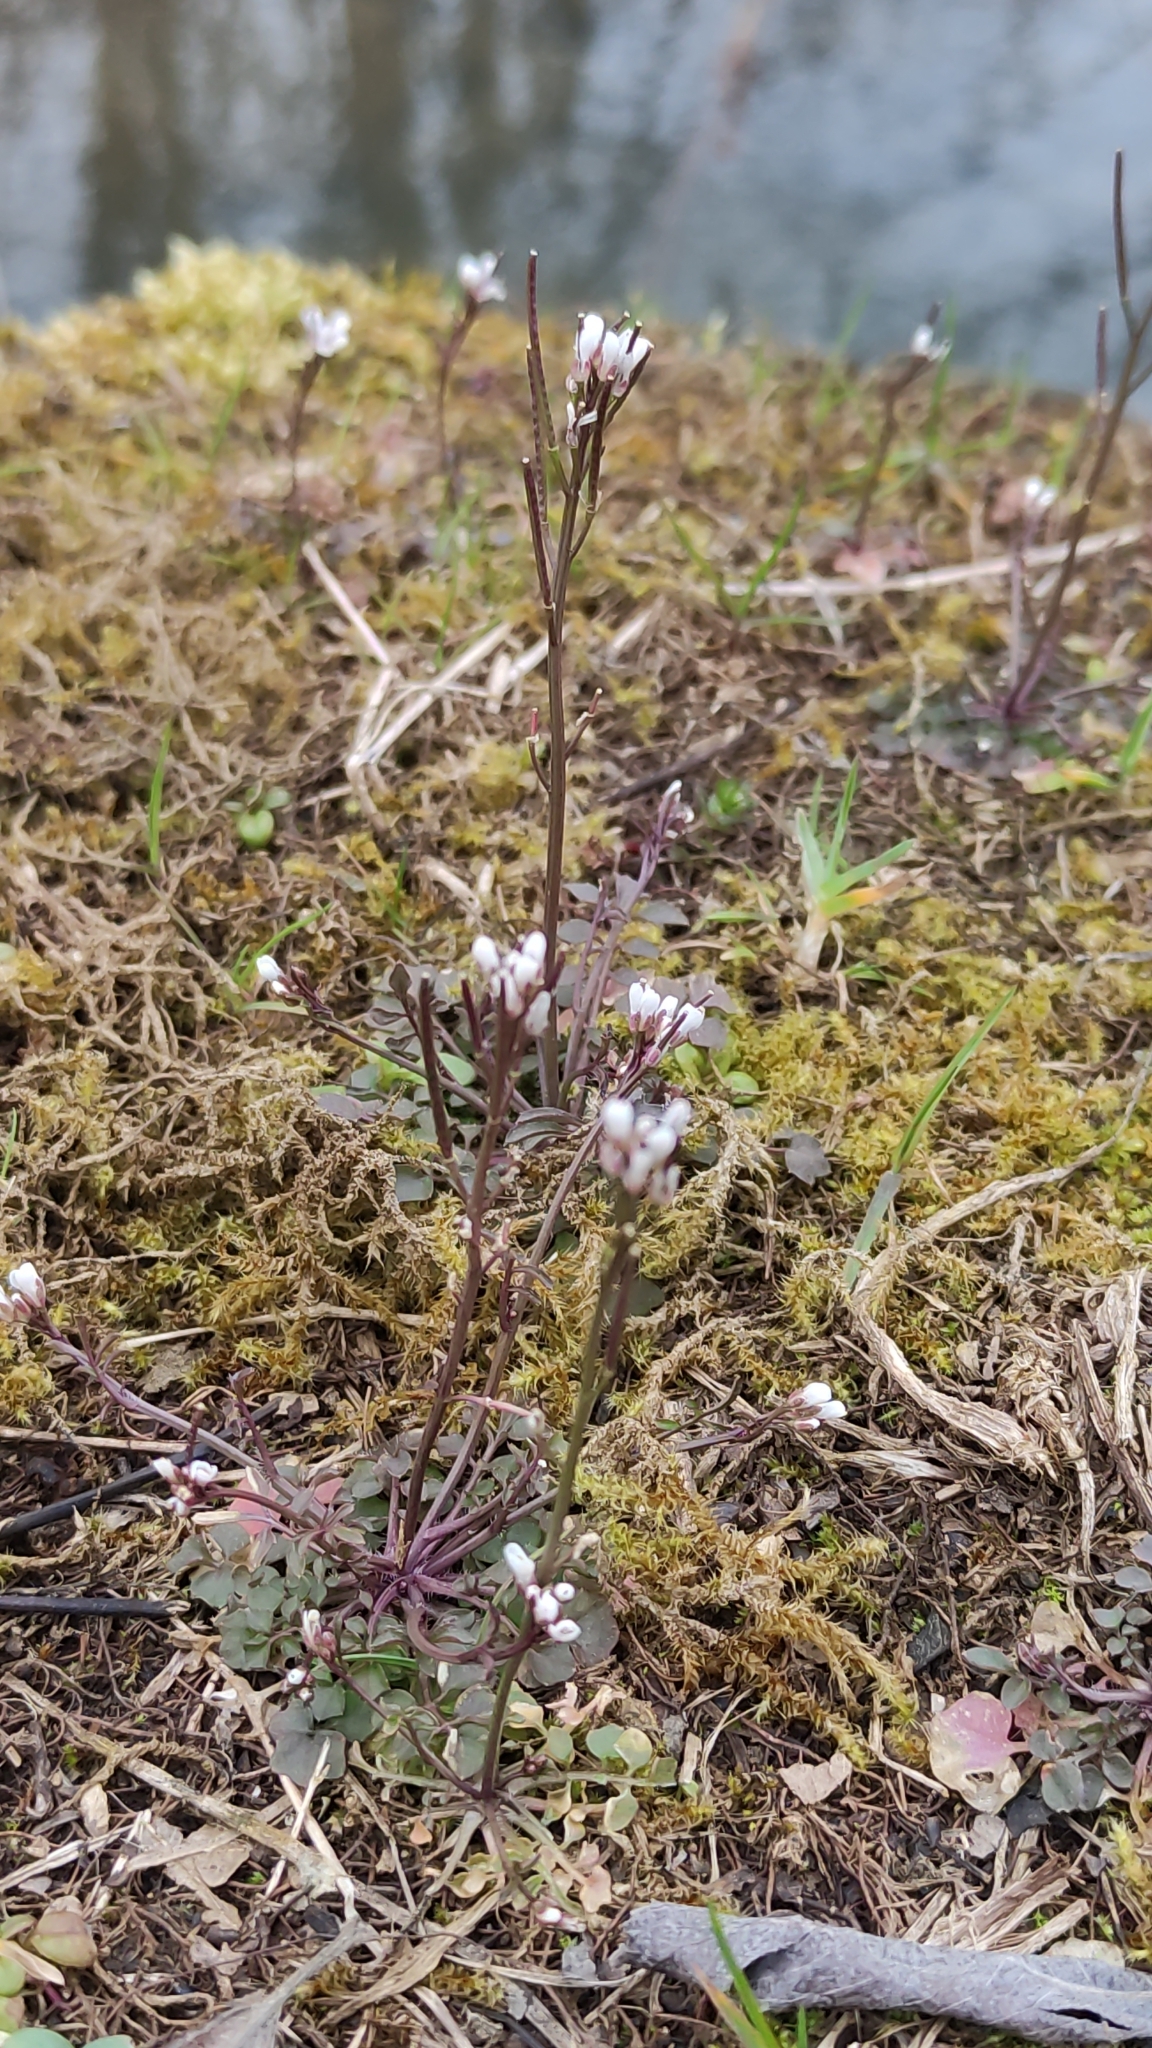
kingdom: Plantae
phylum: Tracheophyta
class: Magnoliopsida
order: Brassicales
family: Brassicaceae
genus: Cardamine
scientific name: Cardamine hirsuta
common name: Hairy bittercress
